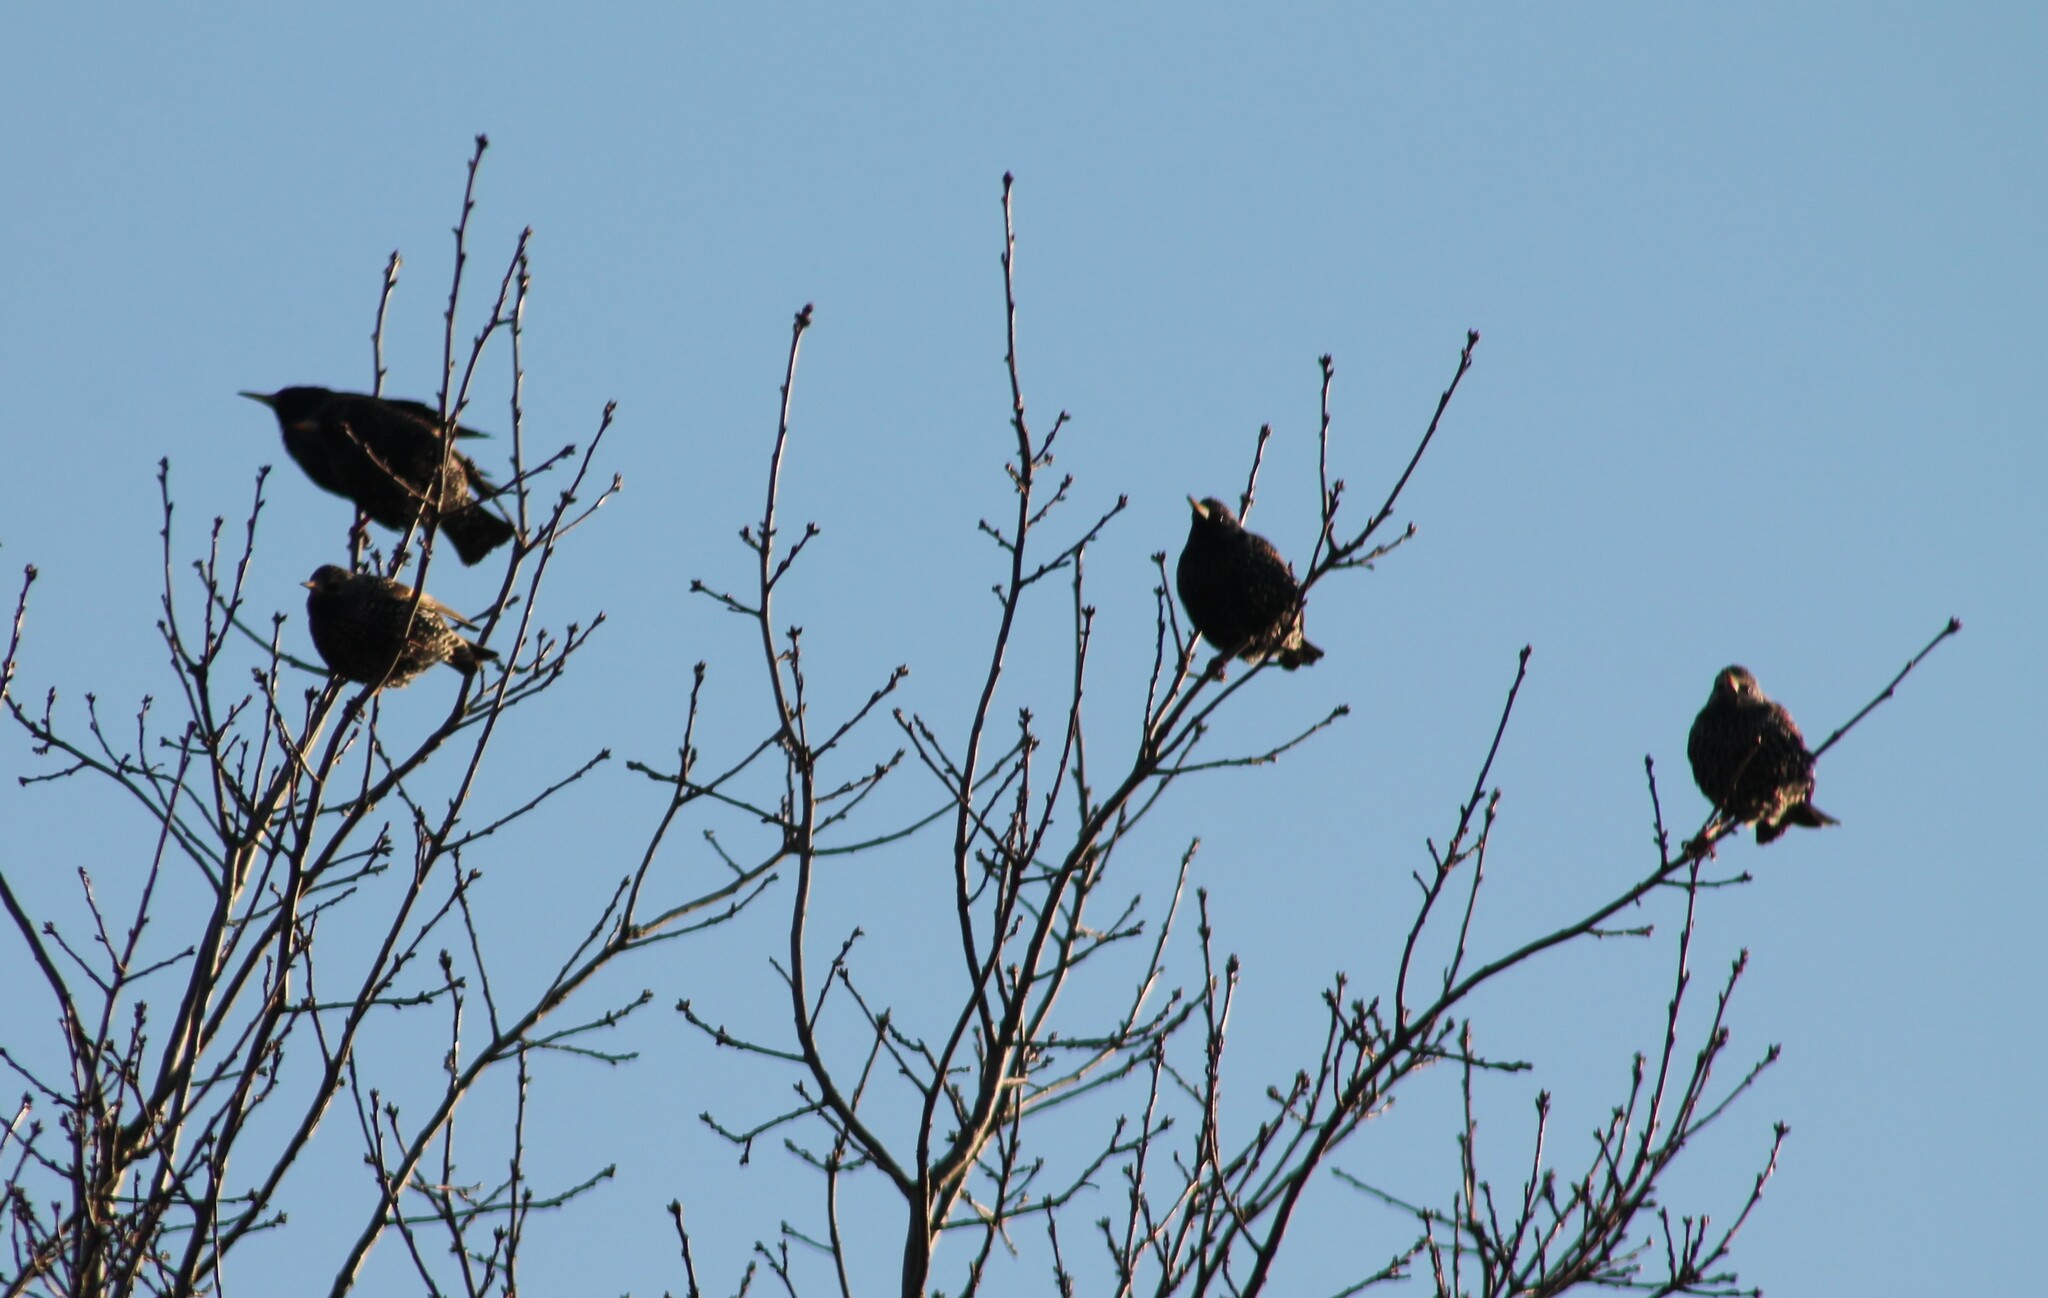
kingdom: Animalia
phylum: Chordata
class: Aves
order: Passeriformes
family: Sturnidae
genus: Sturnus
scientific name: Sturnus vulgaris
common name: Common starling
